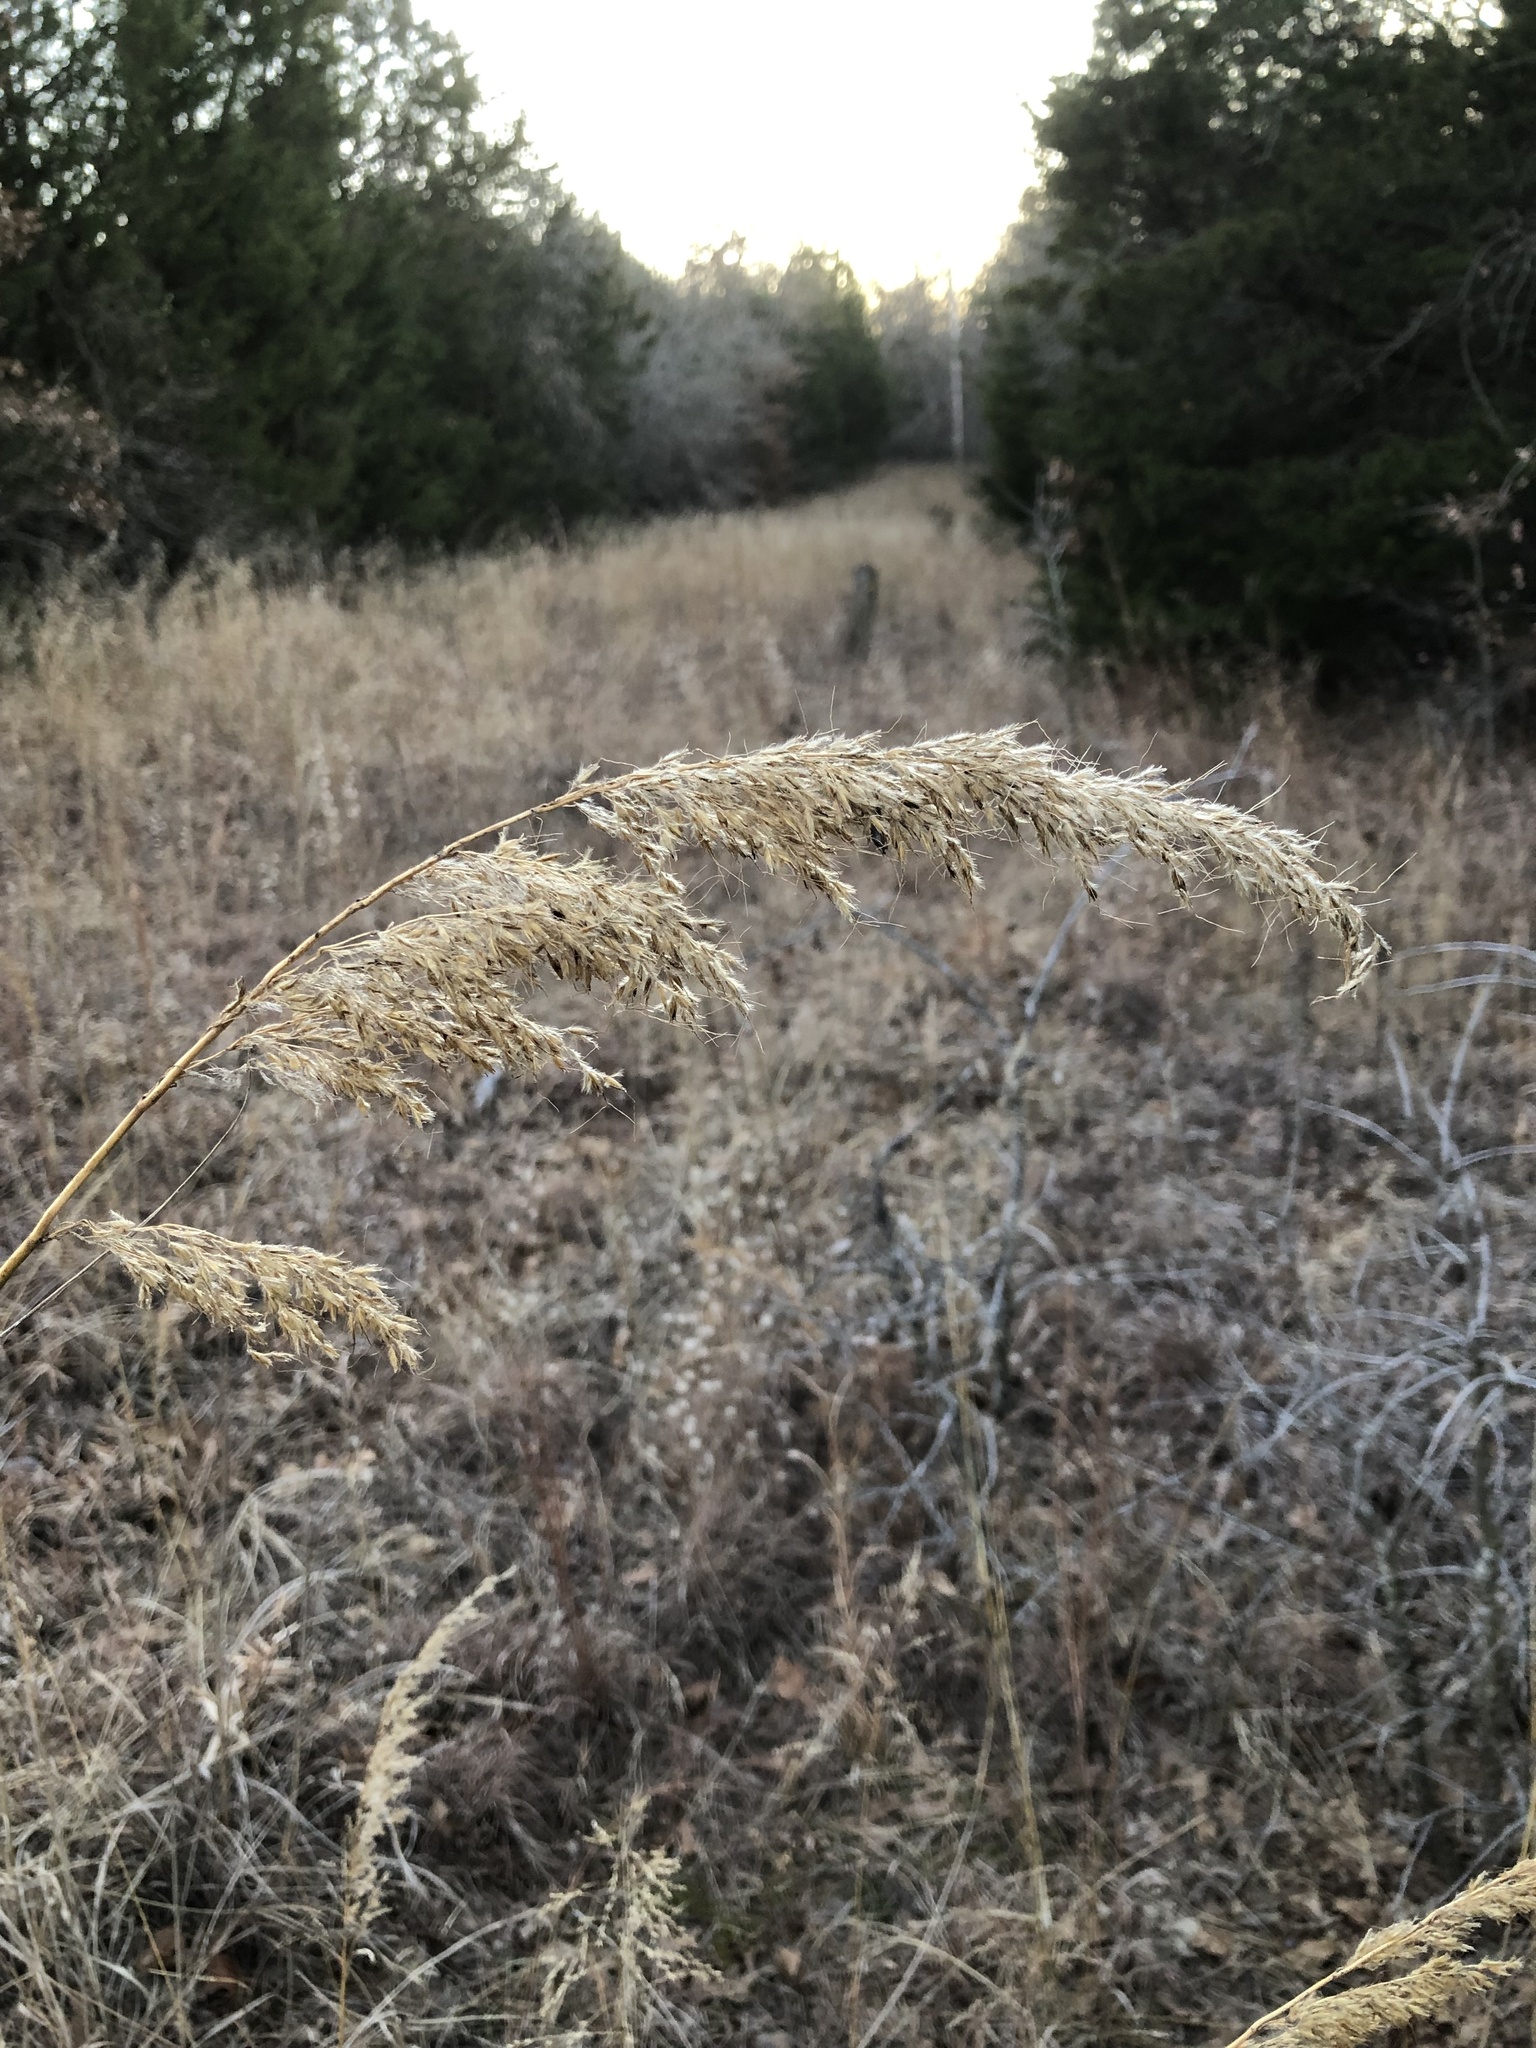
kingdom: Plantae
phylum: Tracheophyta
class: Liliopsida
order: Poales
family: Poaceae
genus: Sorghastrum
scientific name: Sorghastrum nutans
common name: Indian grass
